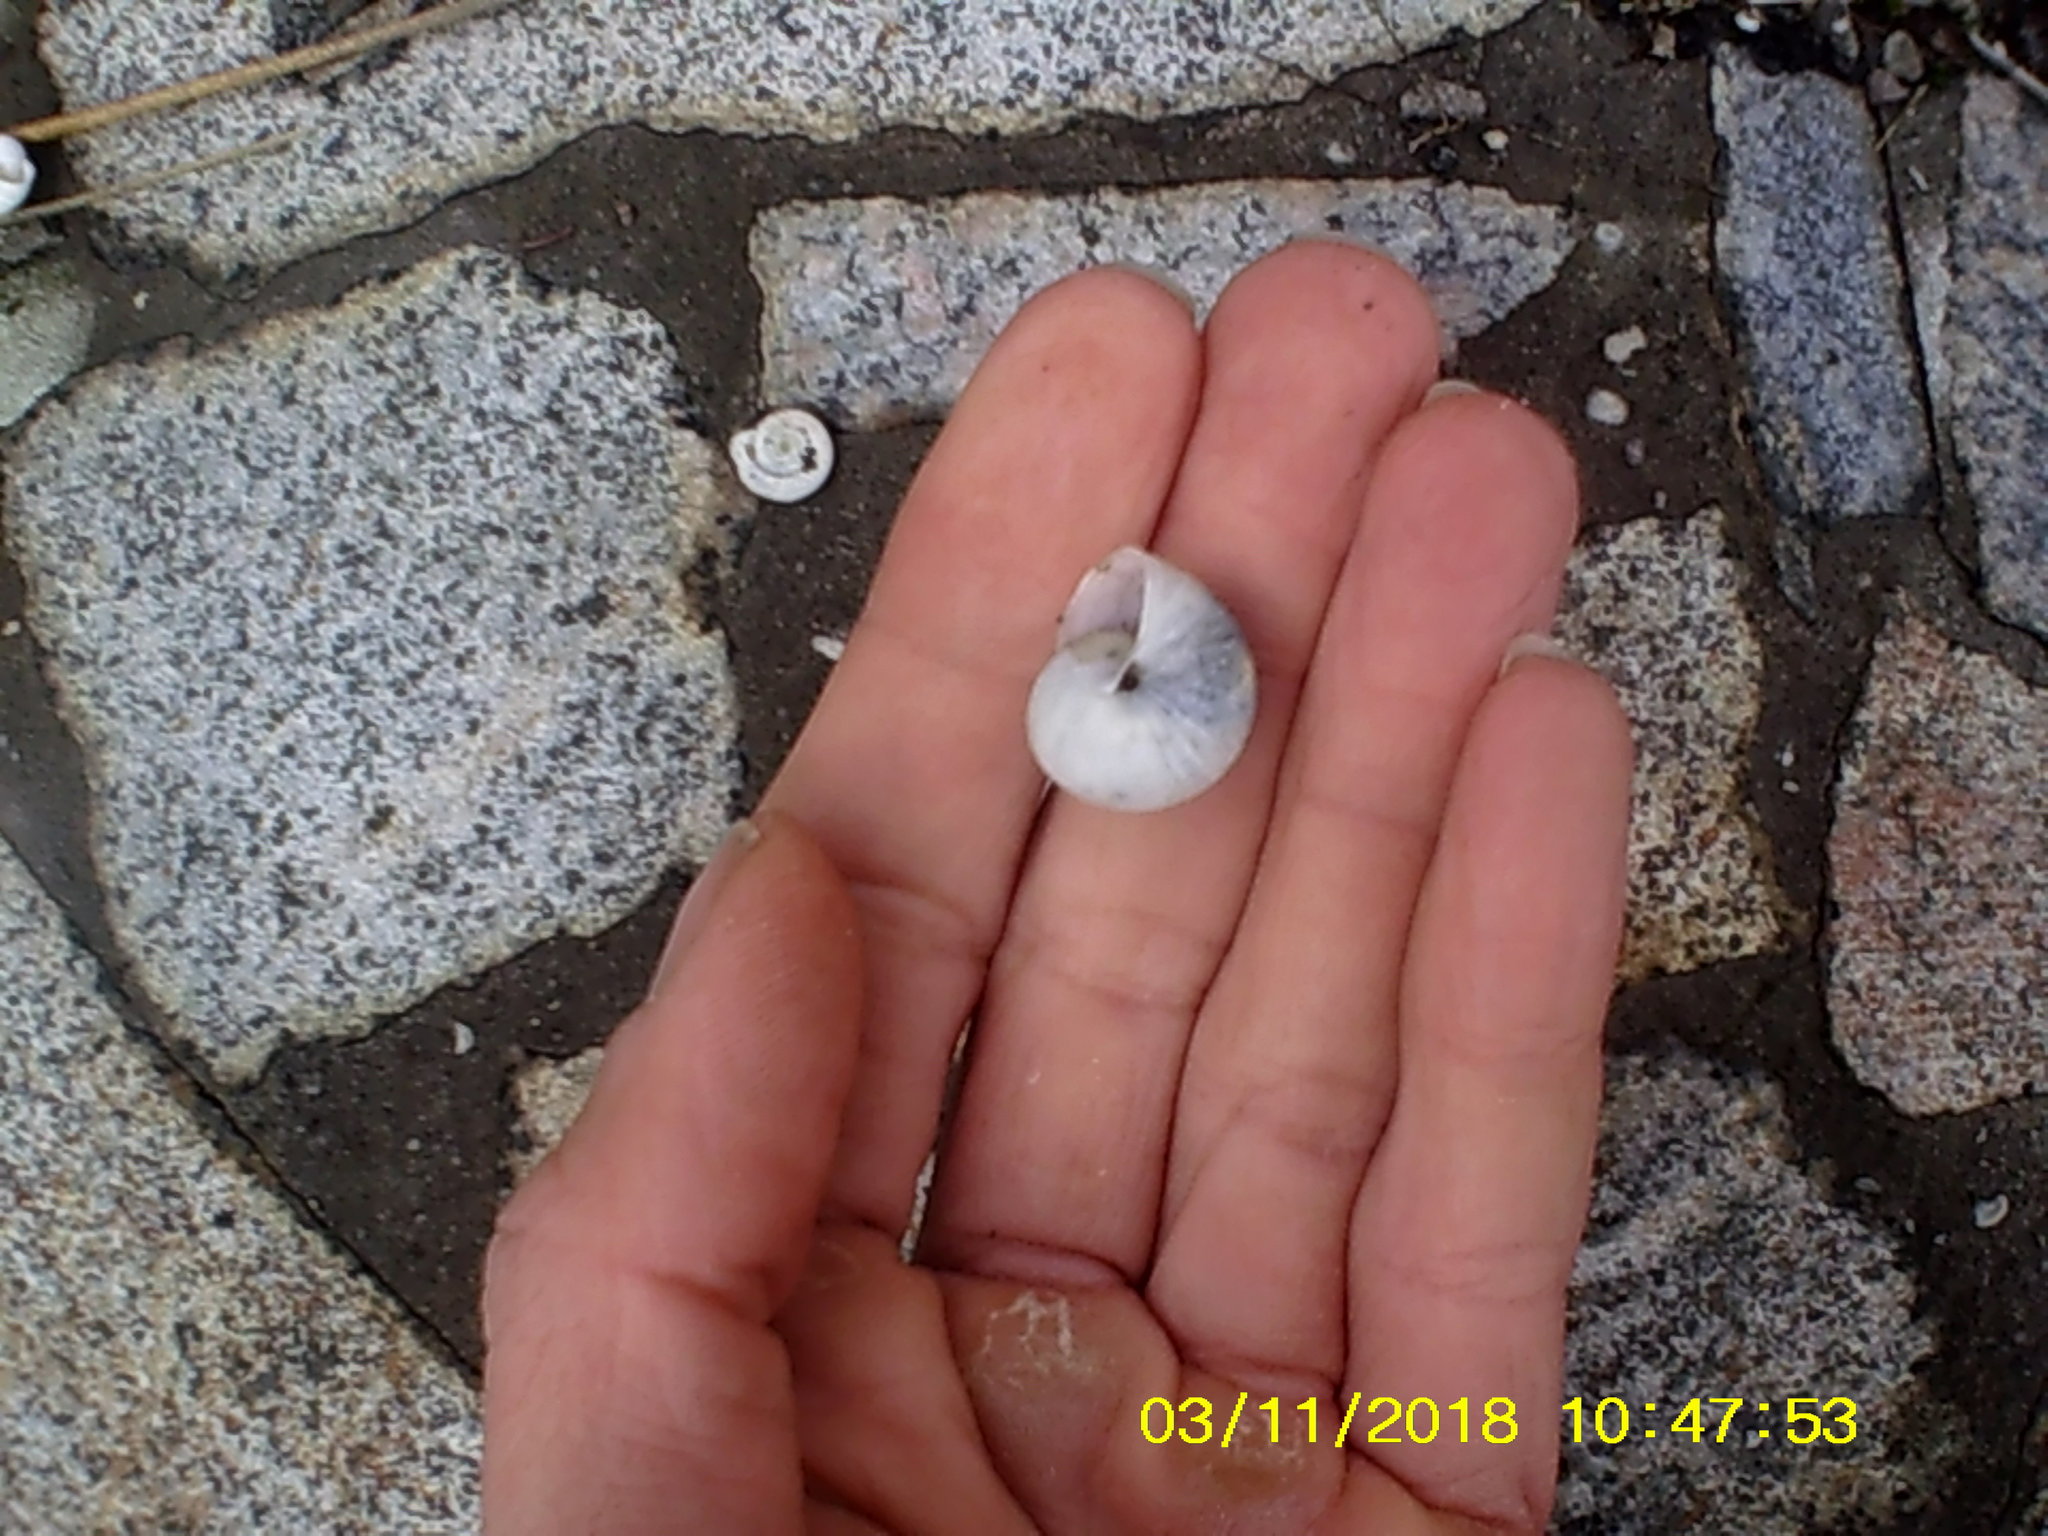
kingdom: Animalia
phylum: Mollusca
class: Gastropoda
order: Stylommatophora
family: Hygromiidae
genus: Monacha
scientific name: Monacha fruticola
